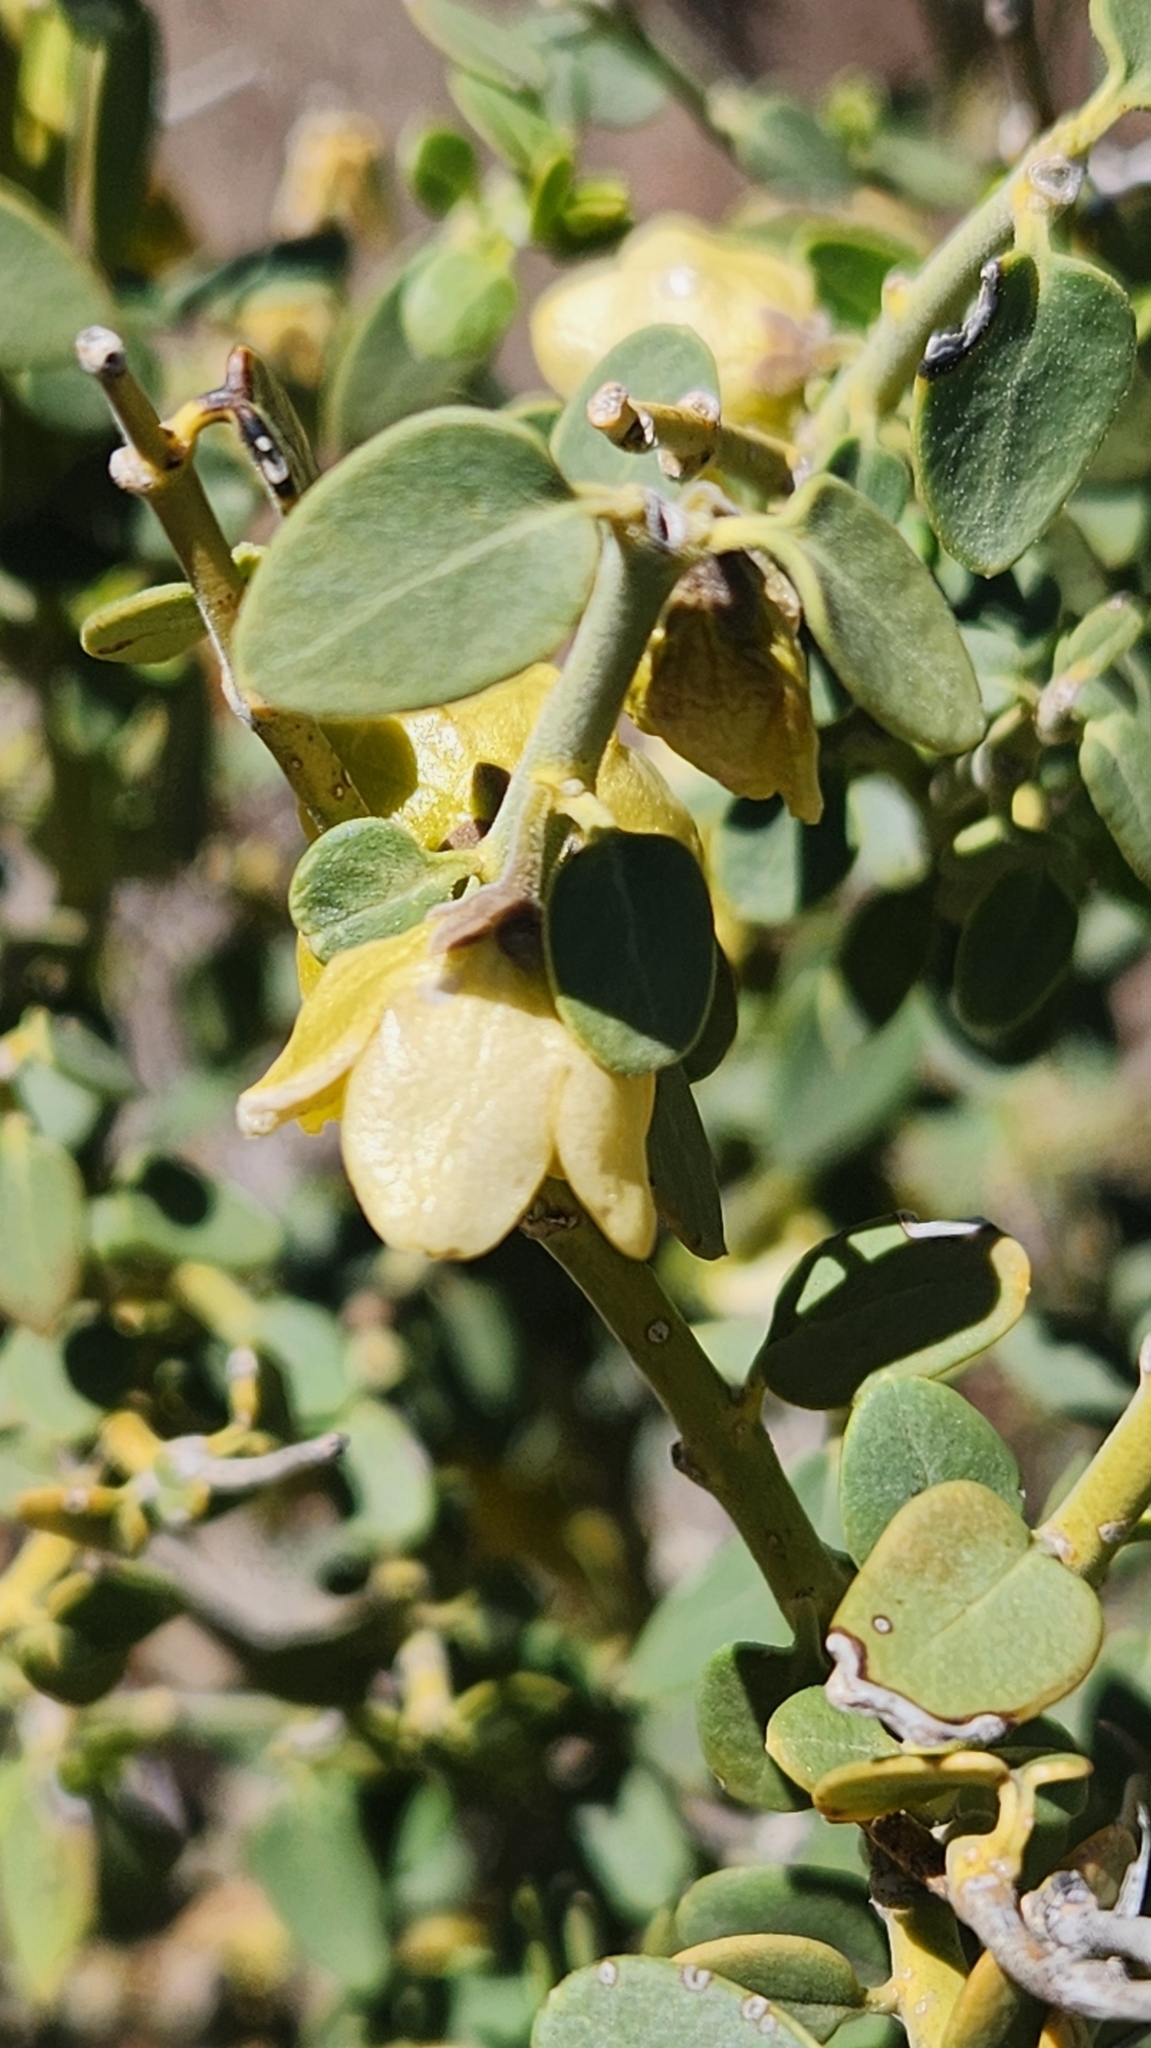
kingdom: Plantae
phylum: Tracheophyta
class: Magnoliopsida
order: Gentianales
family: Apocynaceae
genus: Diplolepis
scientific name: Diplolepis hieronymi
